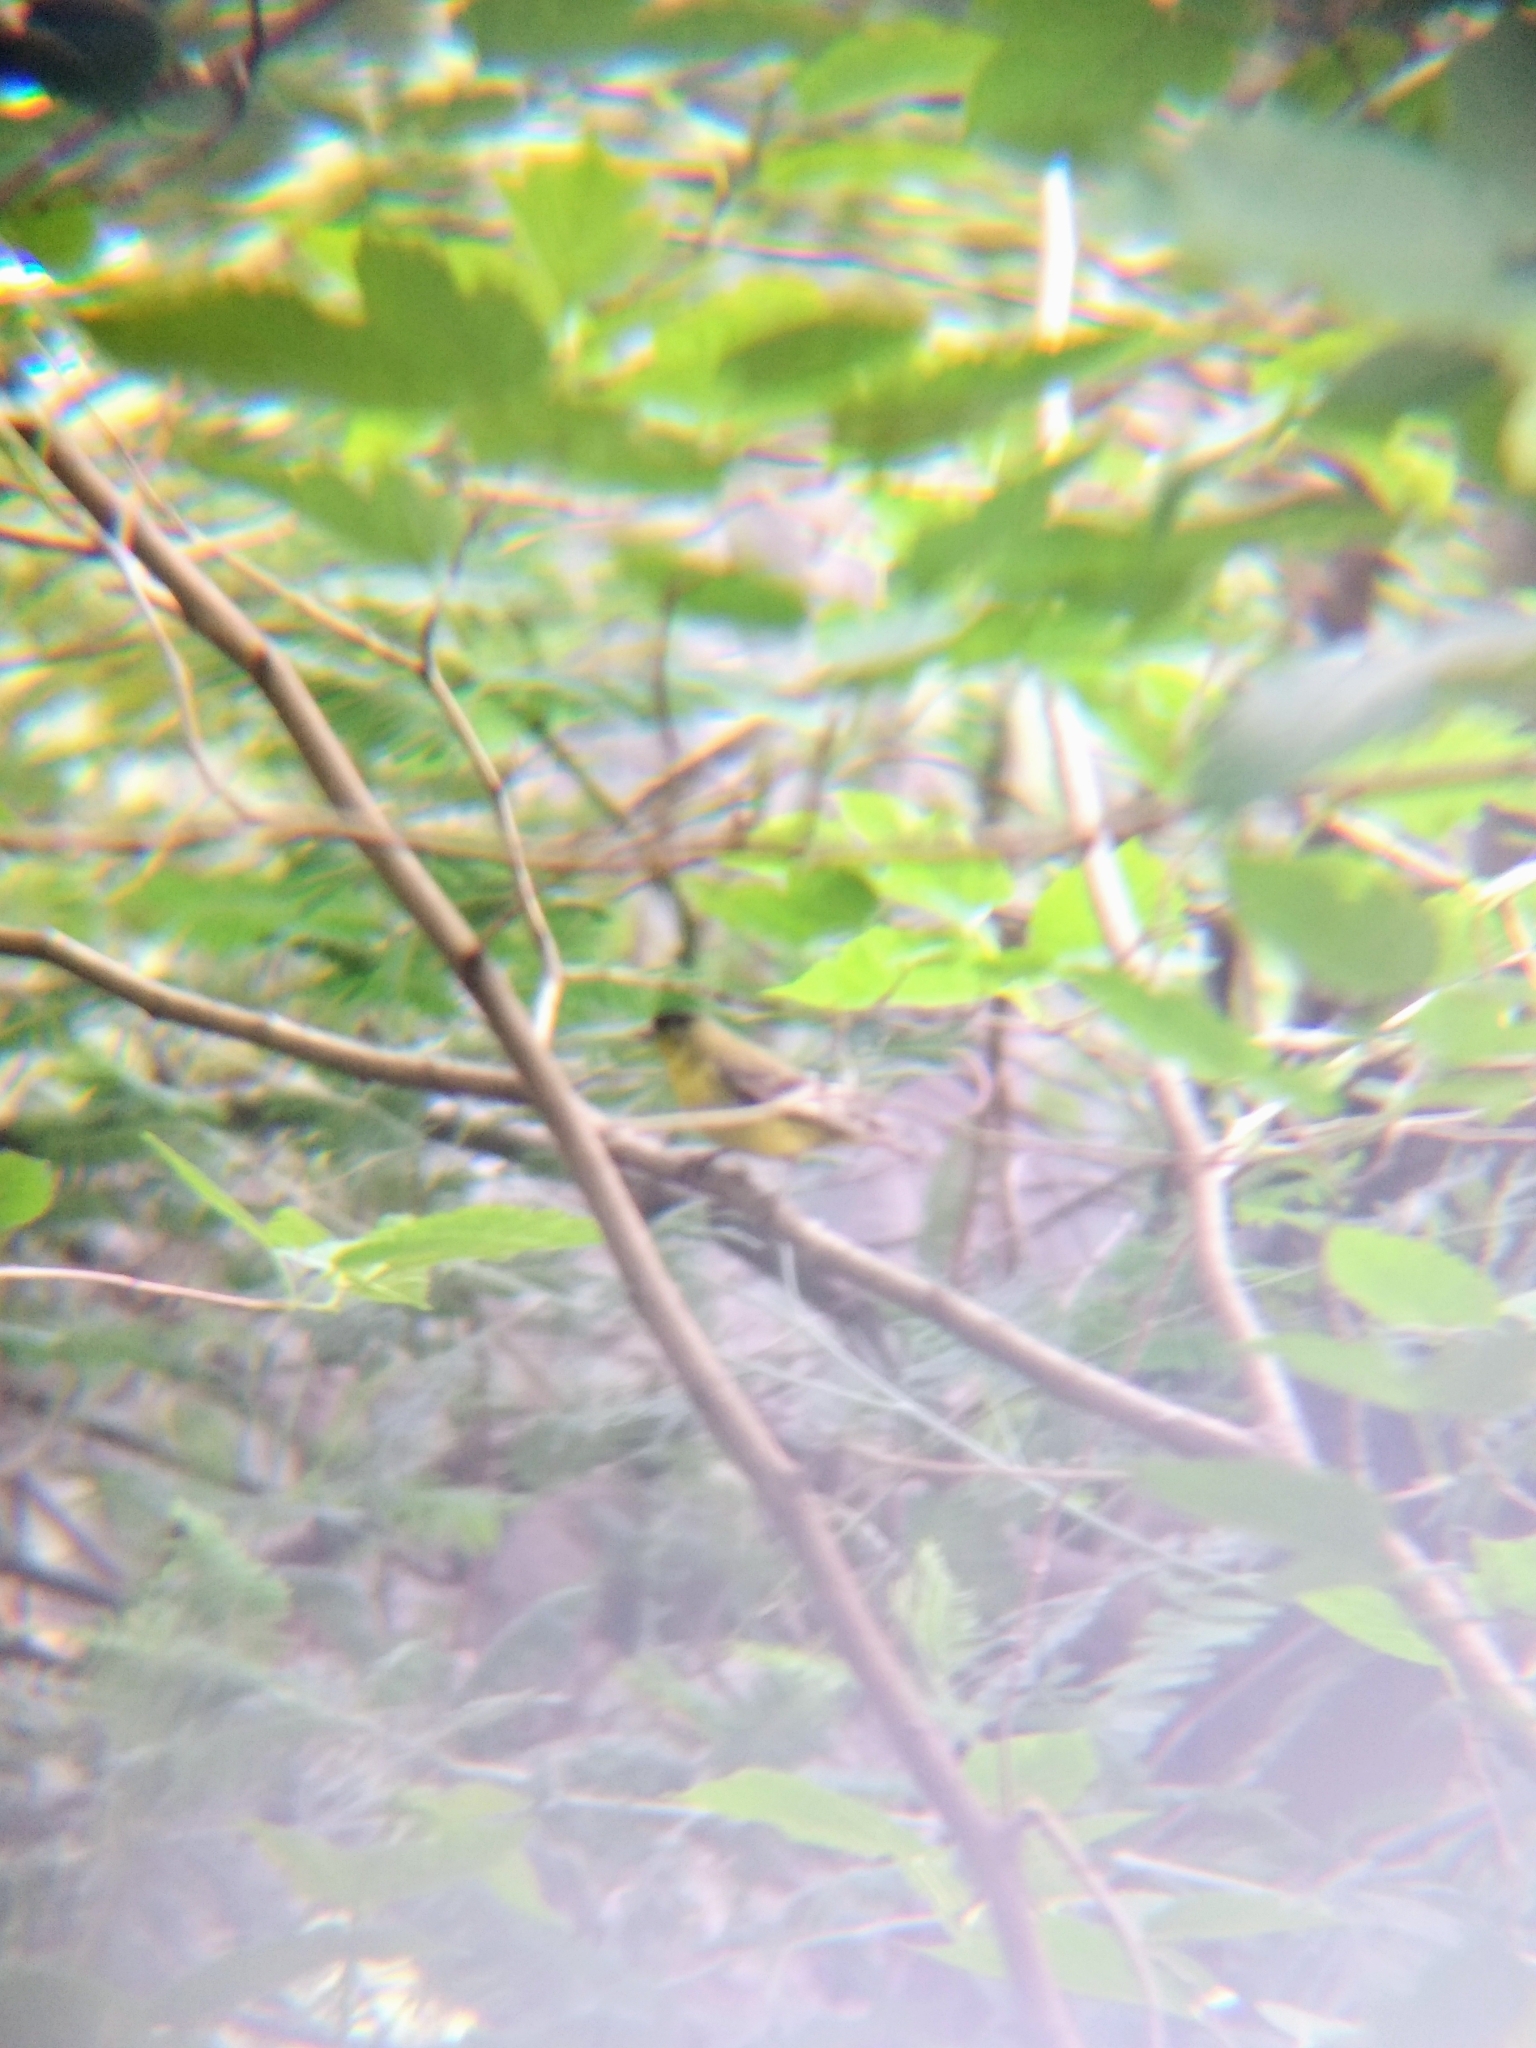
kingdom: Animalia
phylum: Chordata
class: Aves
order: Passeriformes
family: Fringillidae
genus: Spinus
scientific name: Spinus psaltria
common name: Lesser goldfinch
